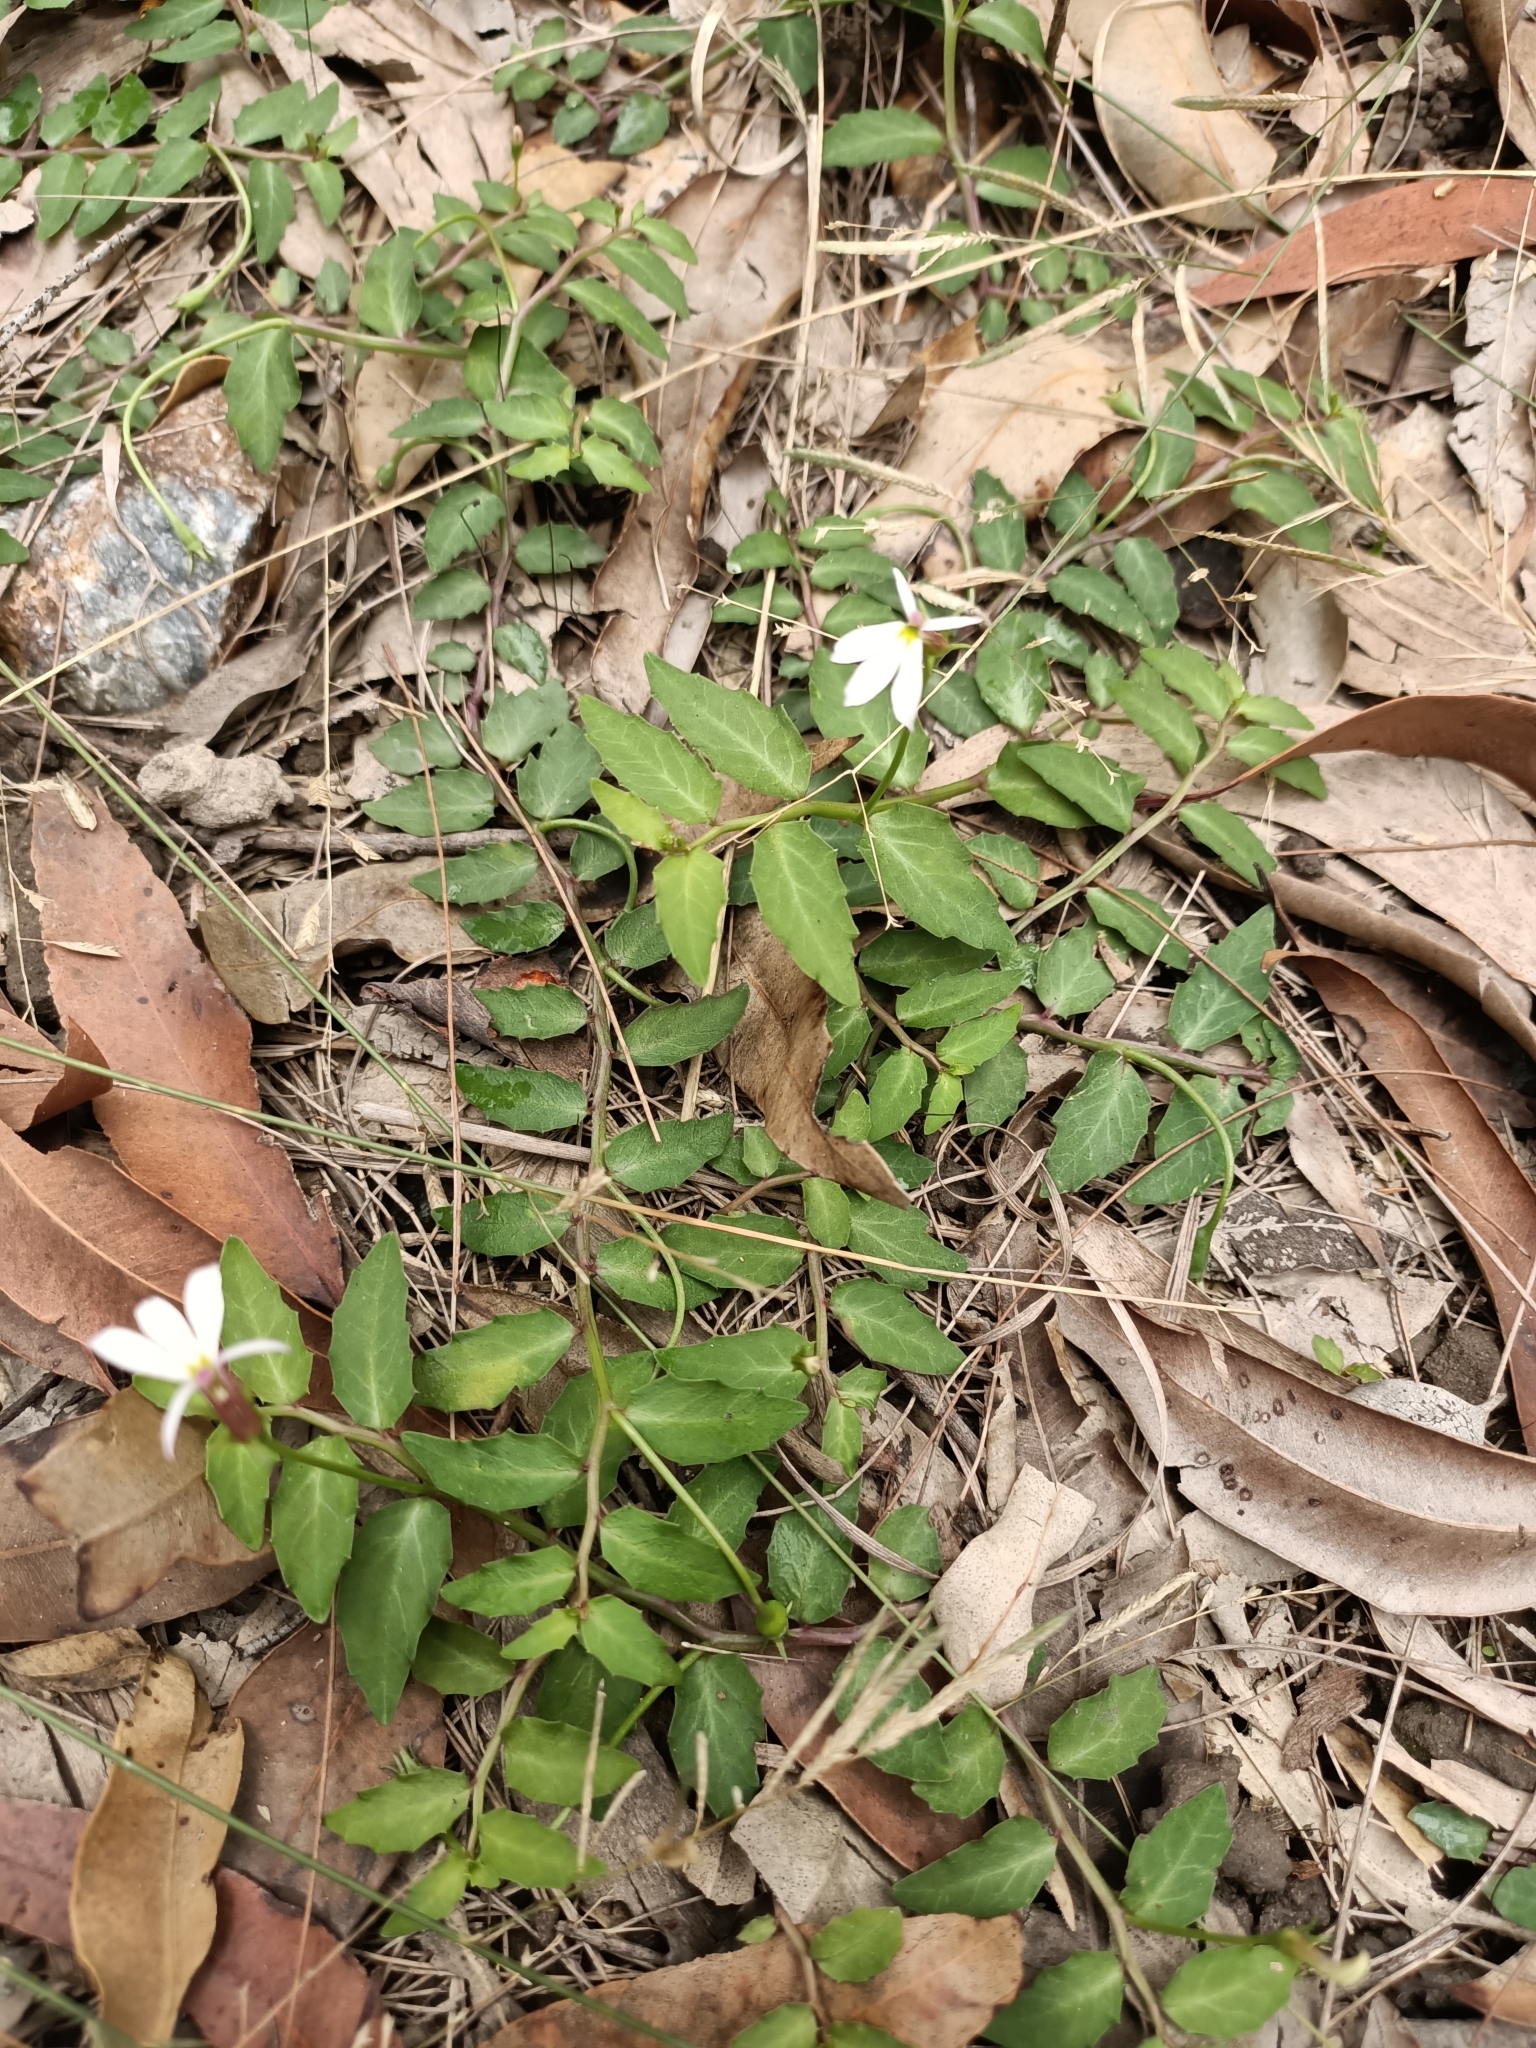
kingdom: Plantae
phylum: Tracheophyta
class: Magnoliopsida
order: Asterales
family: Campanulaceae
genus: Lobelia
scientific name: Lobelia purpurascens
